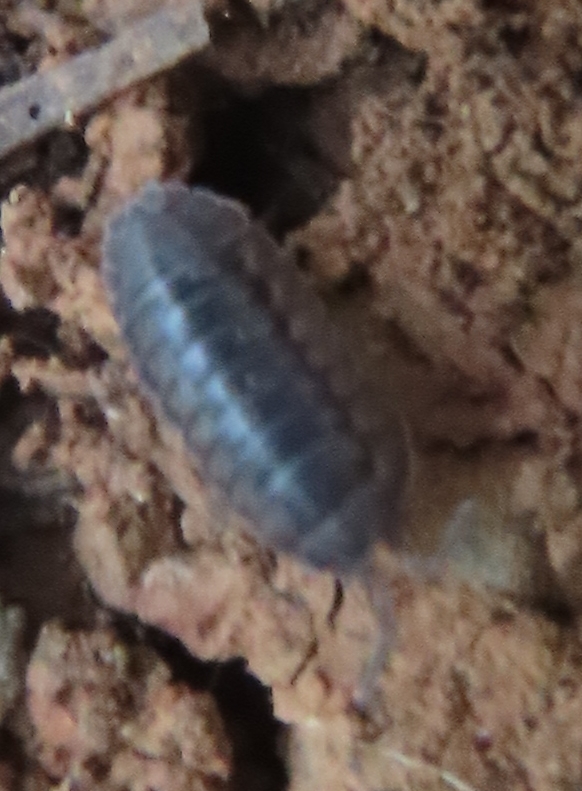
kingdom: Animalia
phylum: Arthropoda
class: Malacostraca
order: Isopoda
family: Armadillidiidae
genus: Armadillidium
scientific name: Armadillidium nasatum
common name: Isopod
